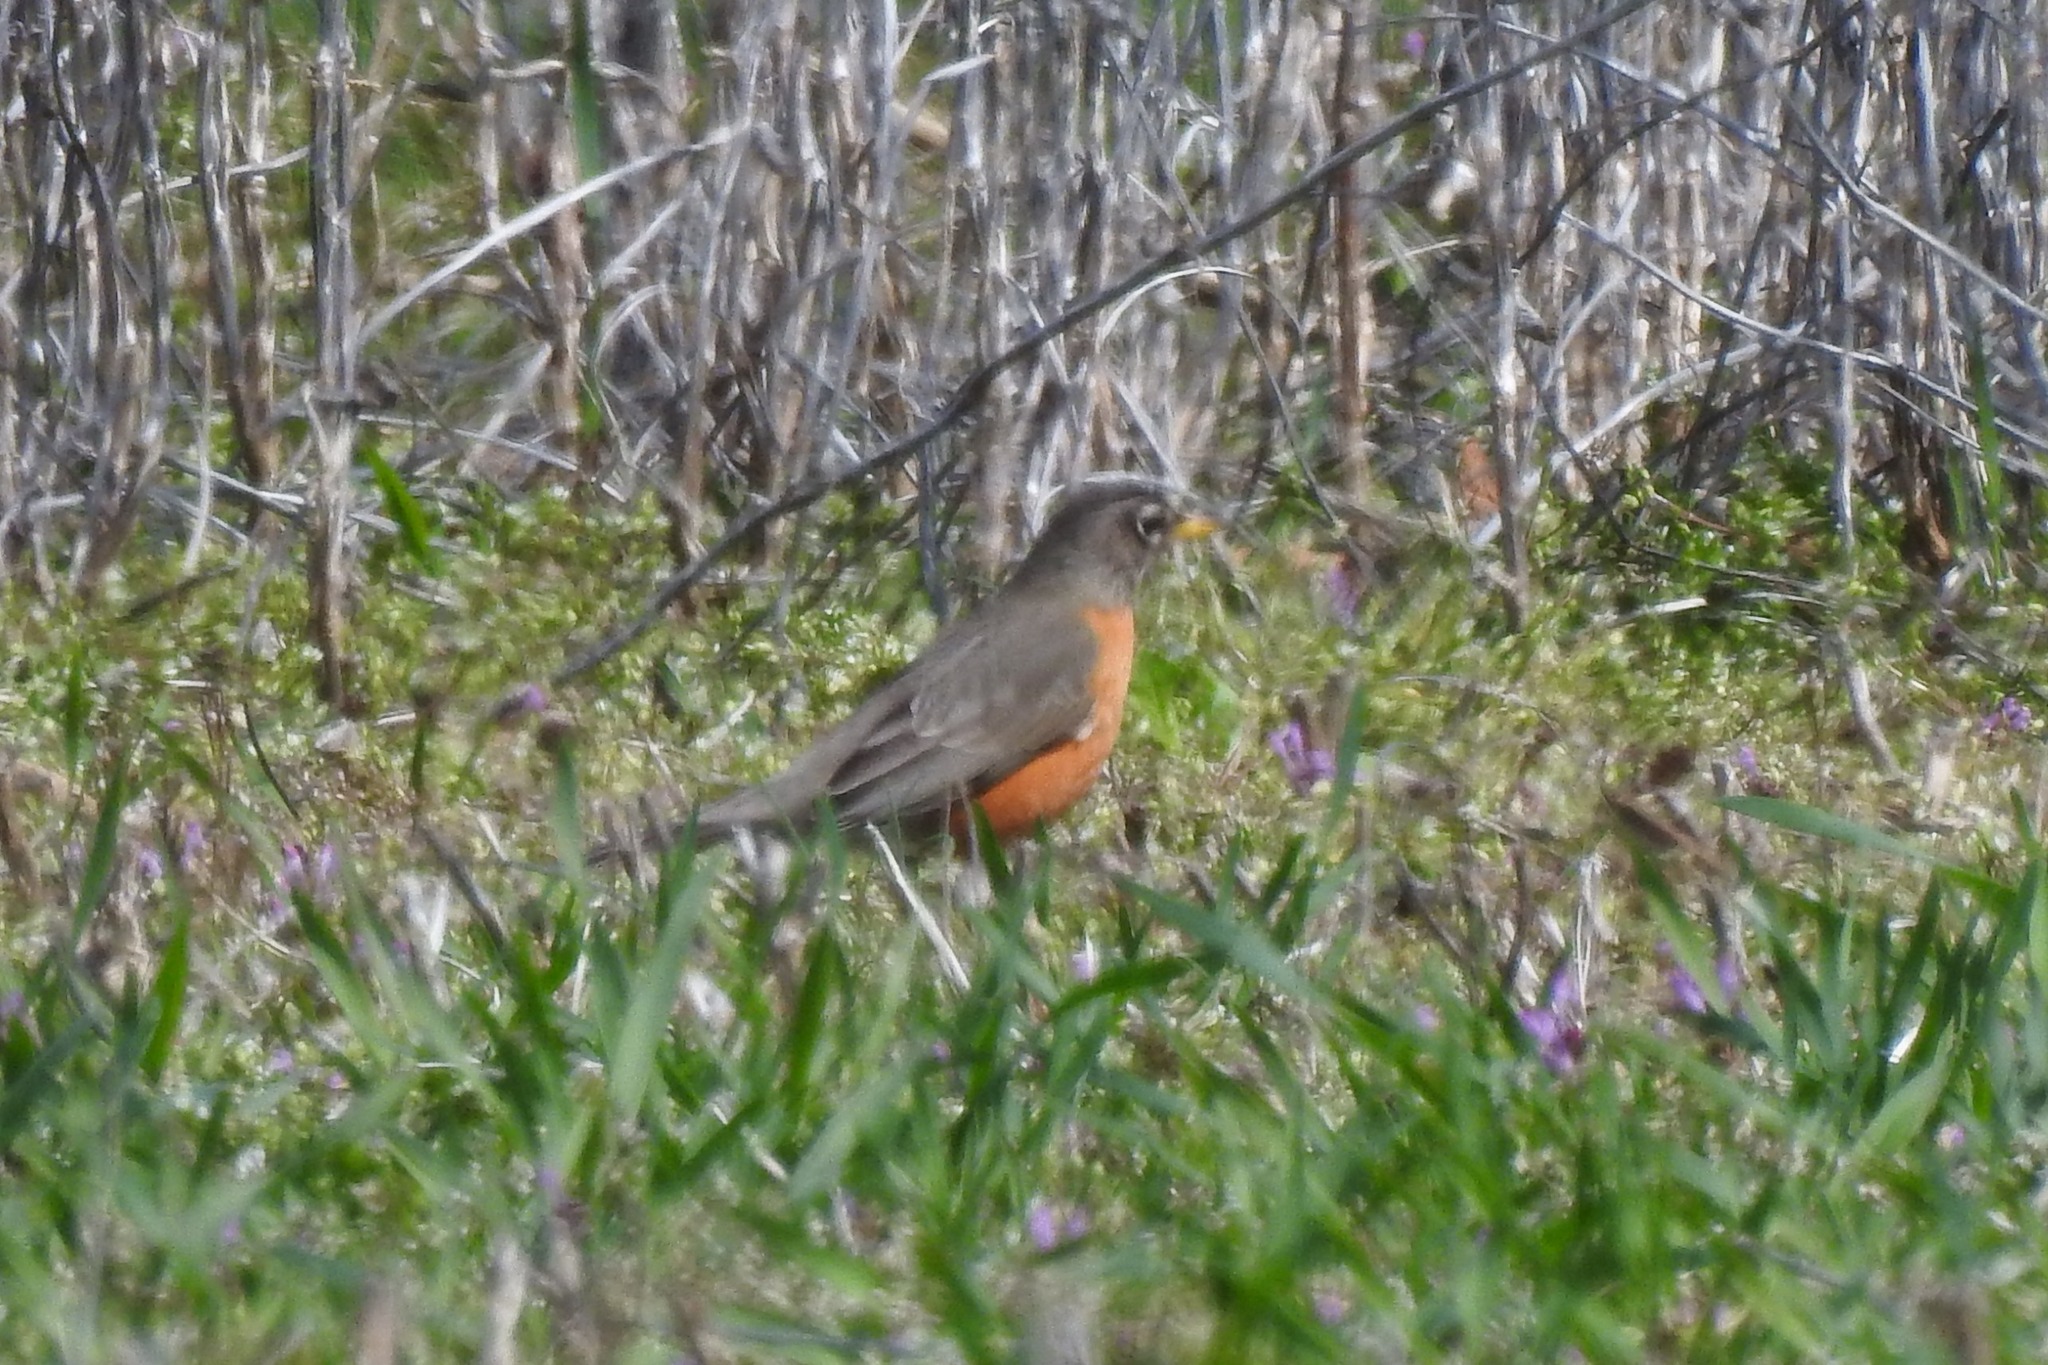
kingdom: Animalia
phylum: Chordata
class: Aves
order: Passeriformes
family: Turdidae
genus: Turdus
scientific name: Turdus migratorius
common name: American robin
